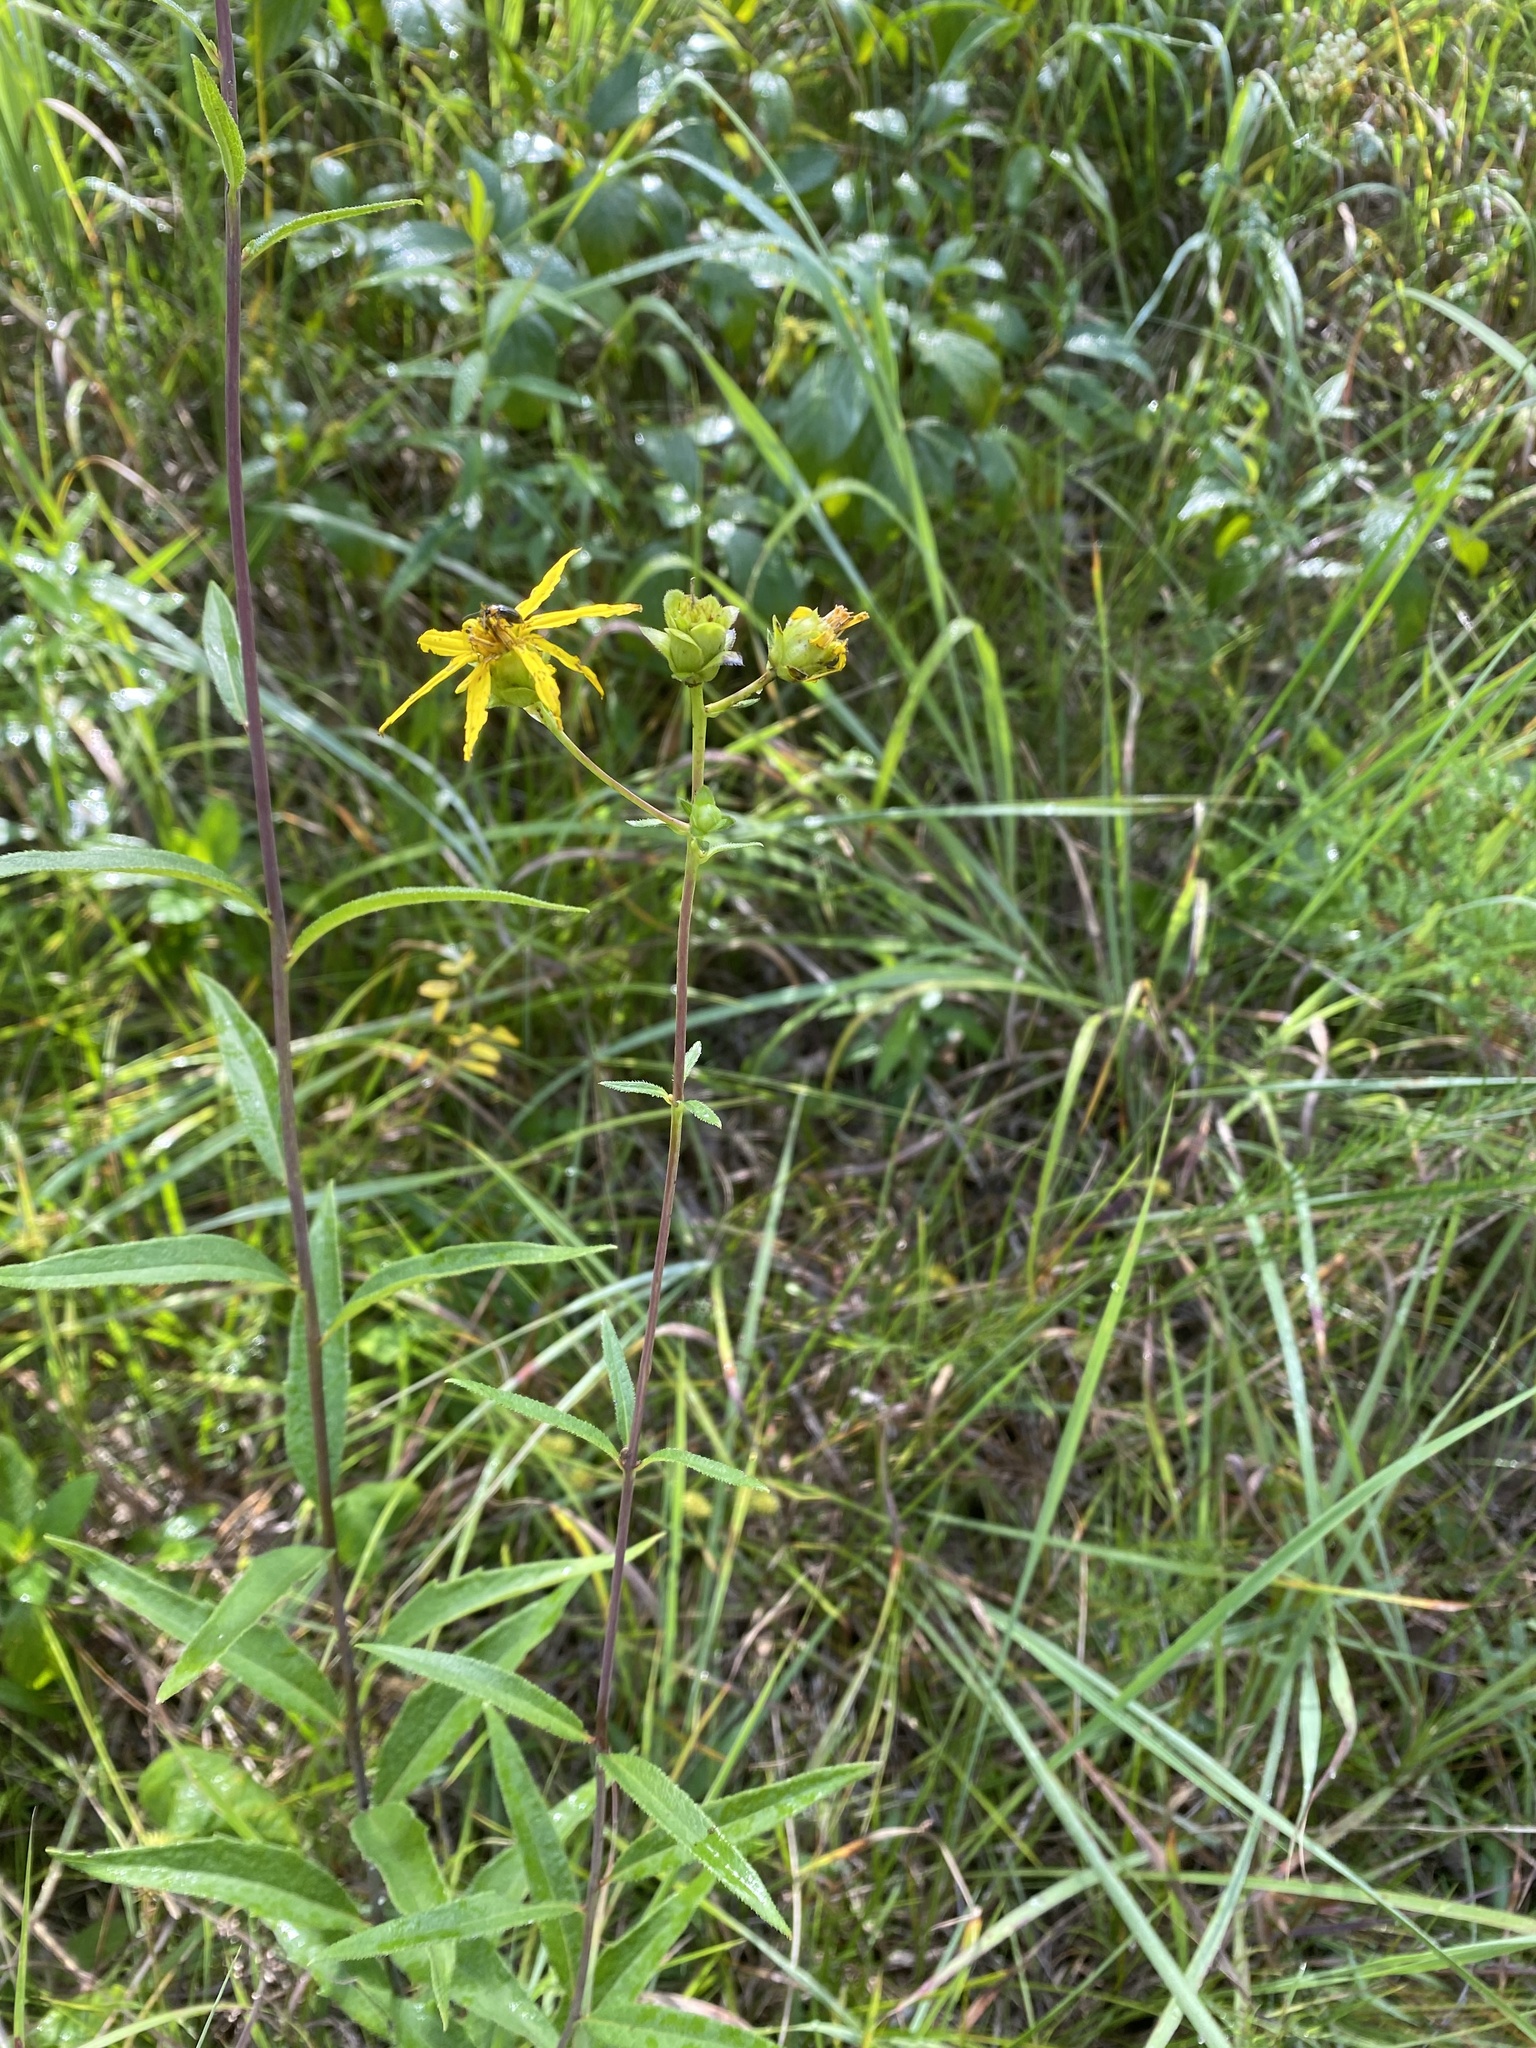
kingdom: Plantae
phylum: Tracheophyta
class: Magnoliopsida
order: Asterales
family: Asteraceae
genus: Silphium
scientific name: Silphium asteriscus
